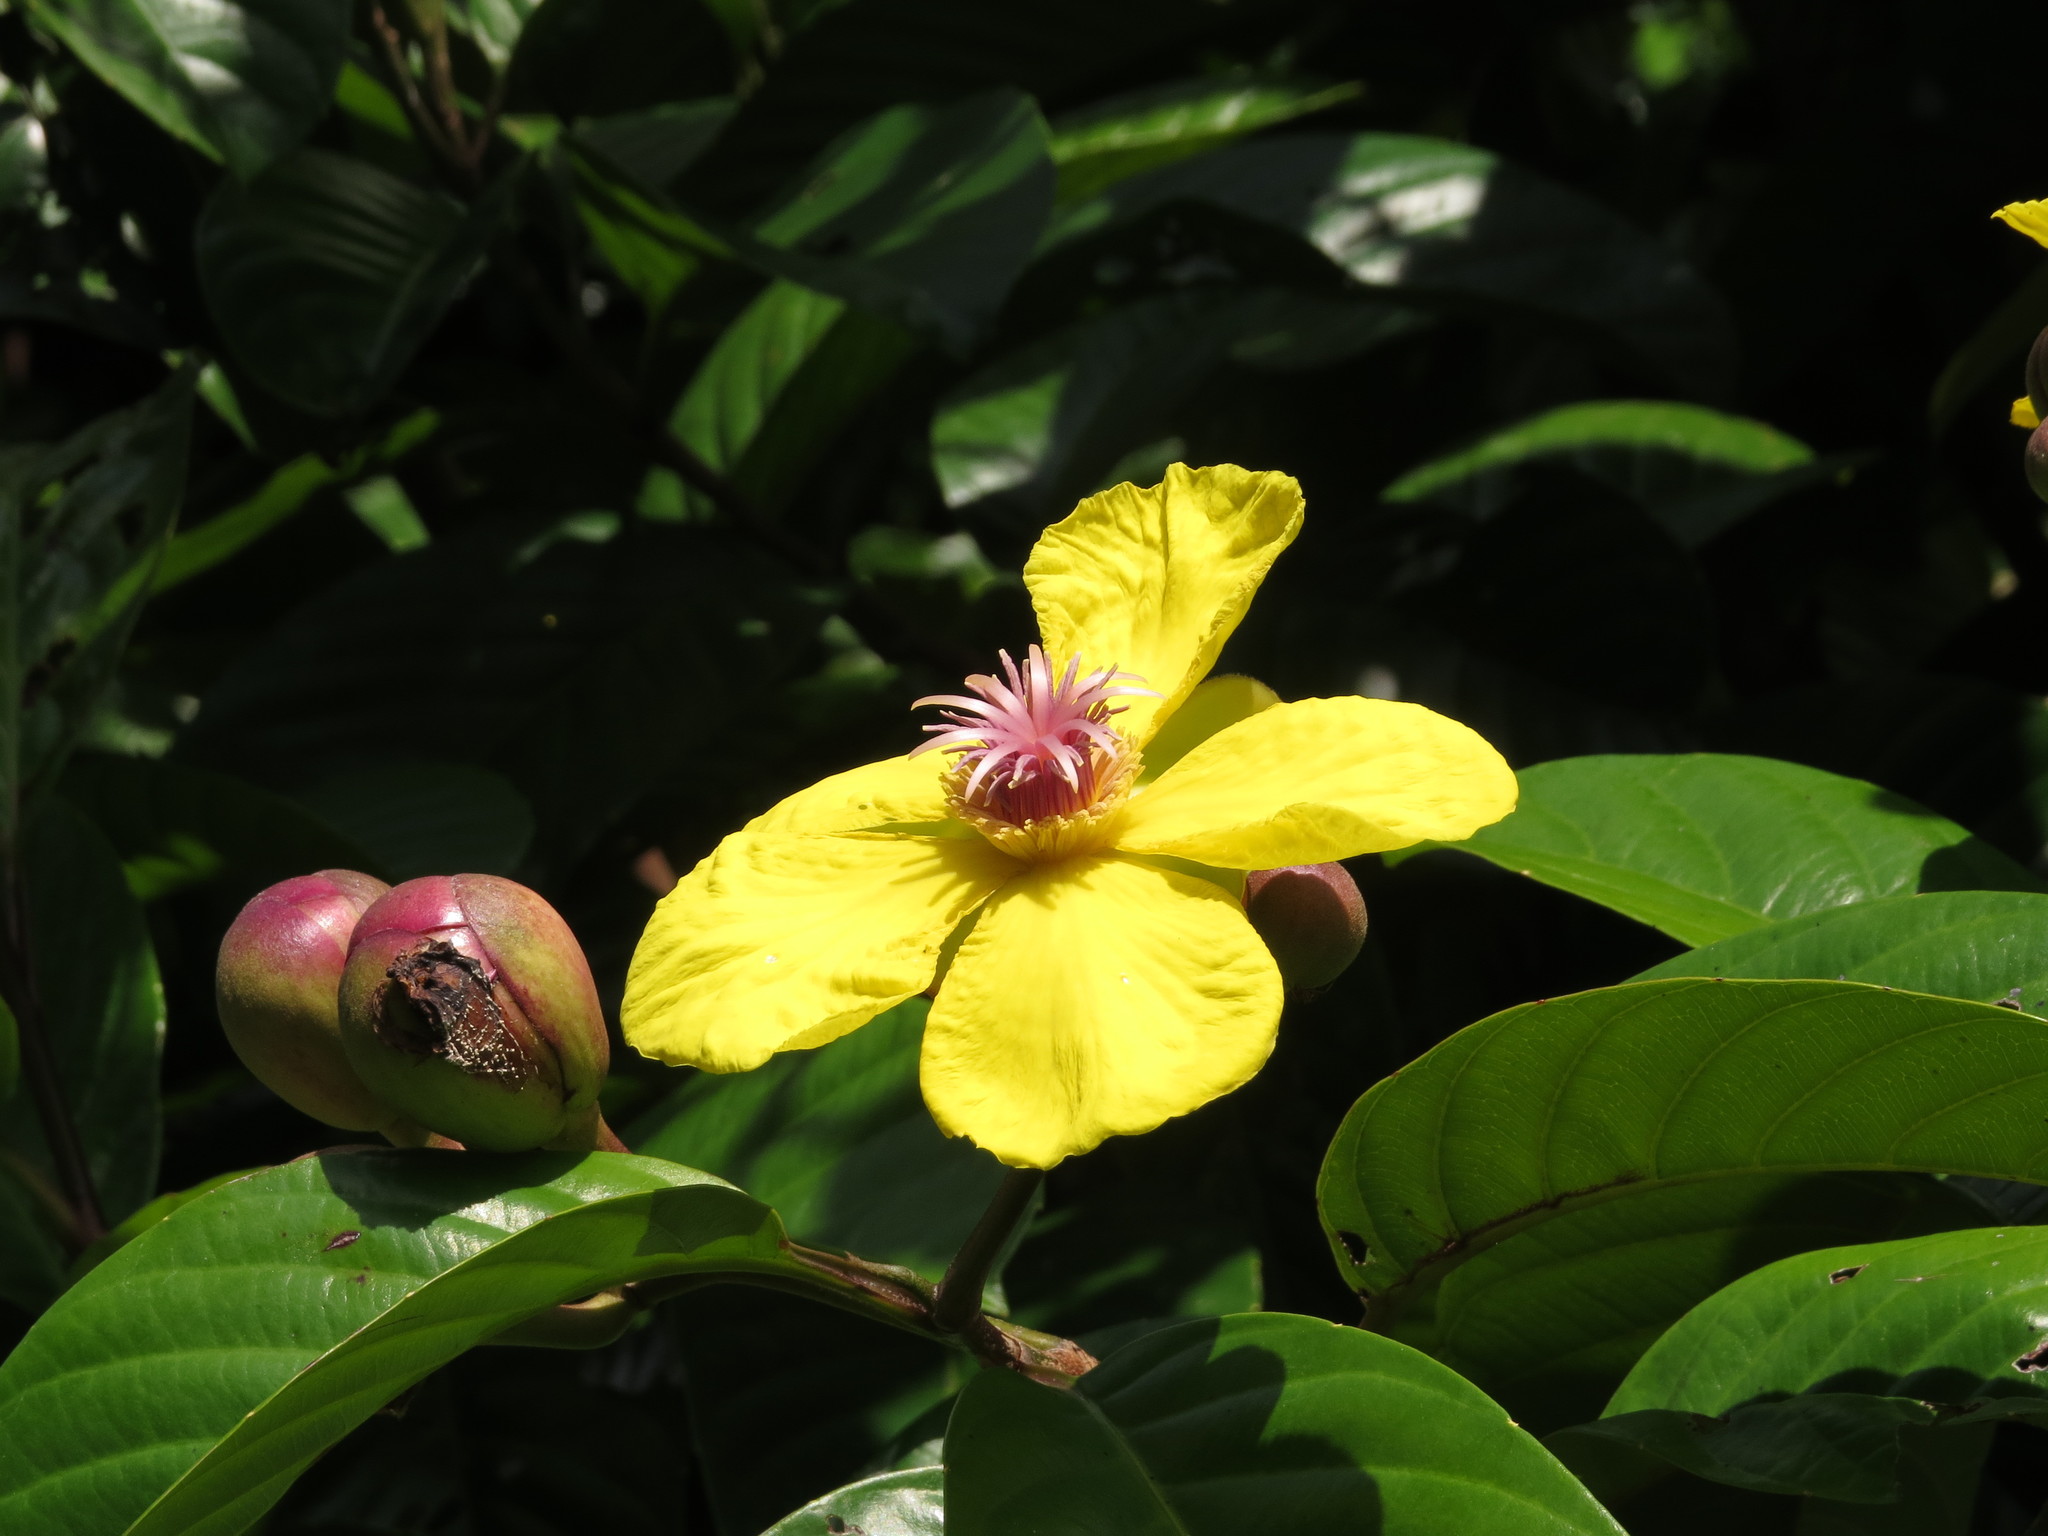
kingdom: Plantae
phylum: Tracheophyta
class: Magnoliopsida
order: Dilleniales
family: Dilleniaceae
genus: Dillenia
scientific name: Dillenia excelsa
